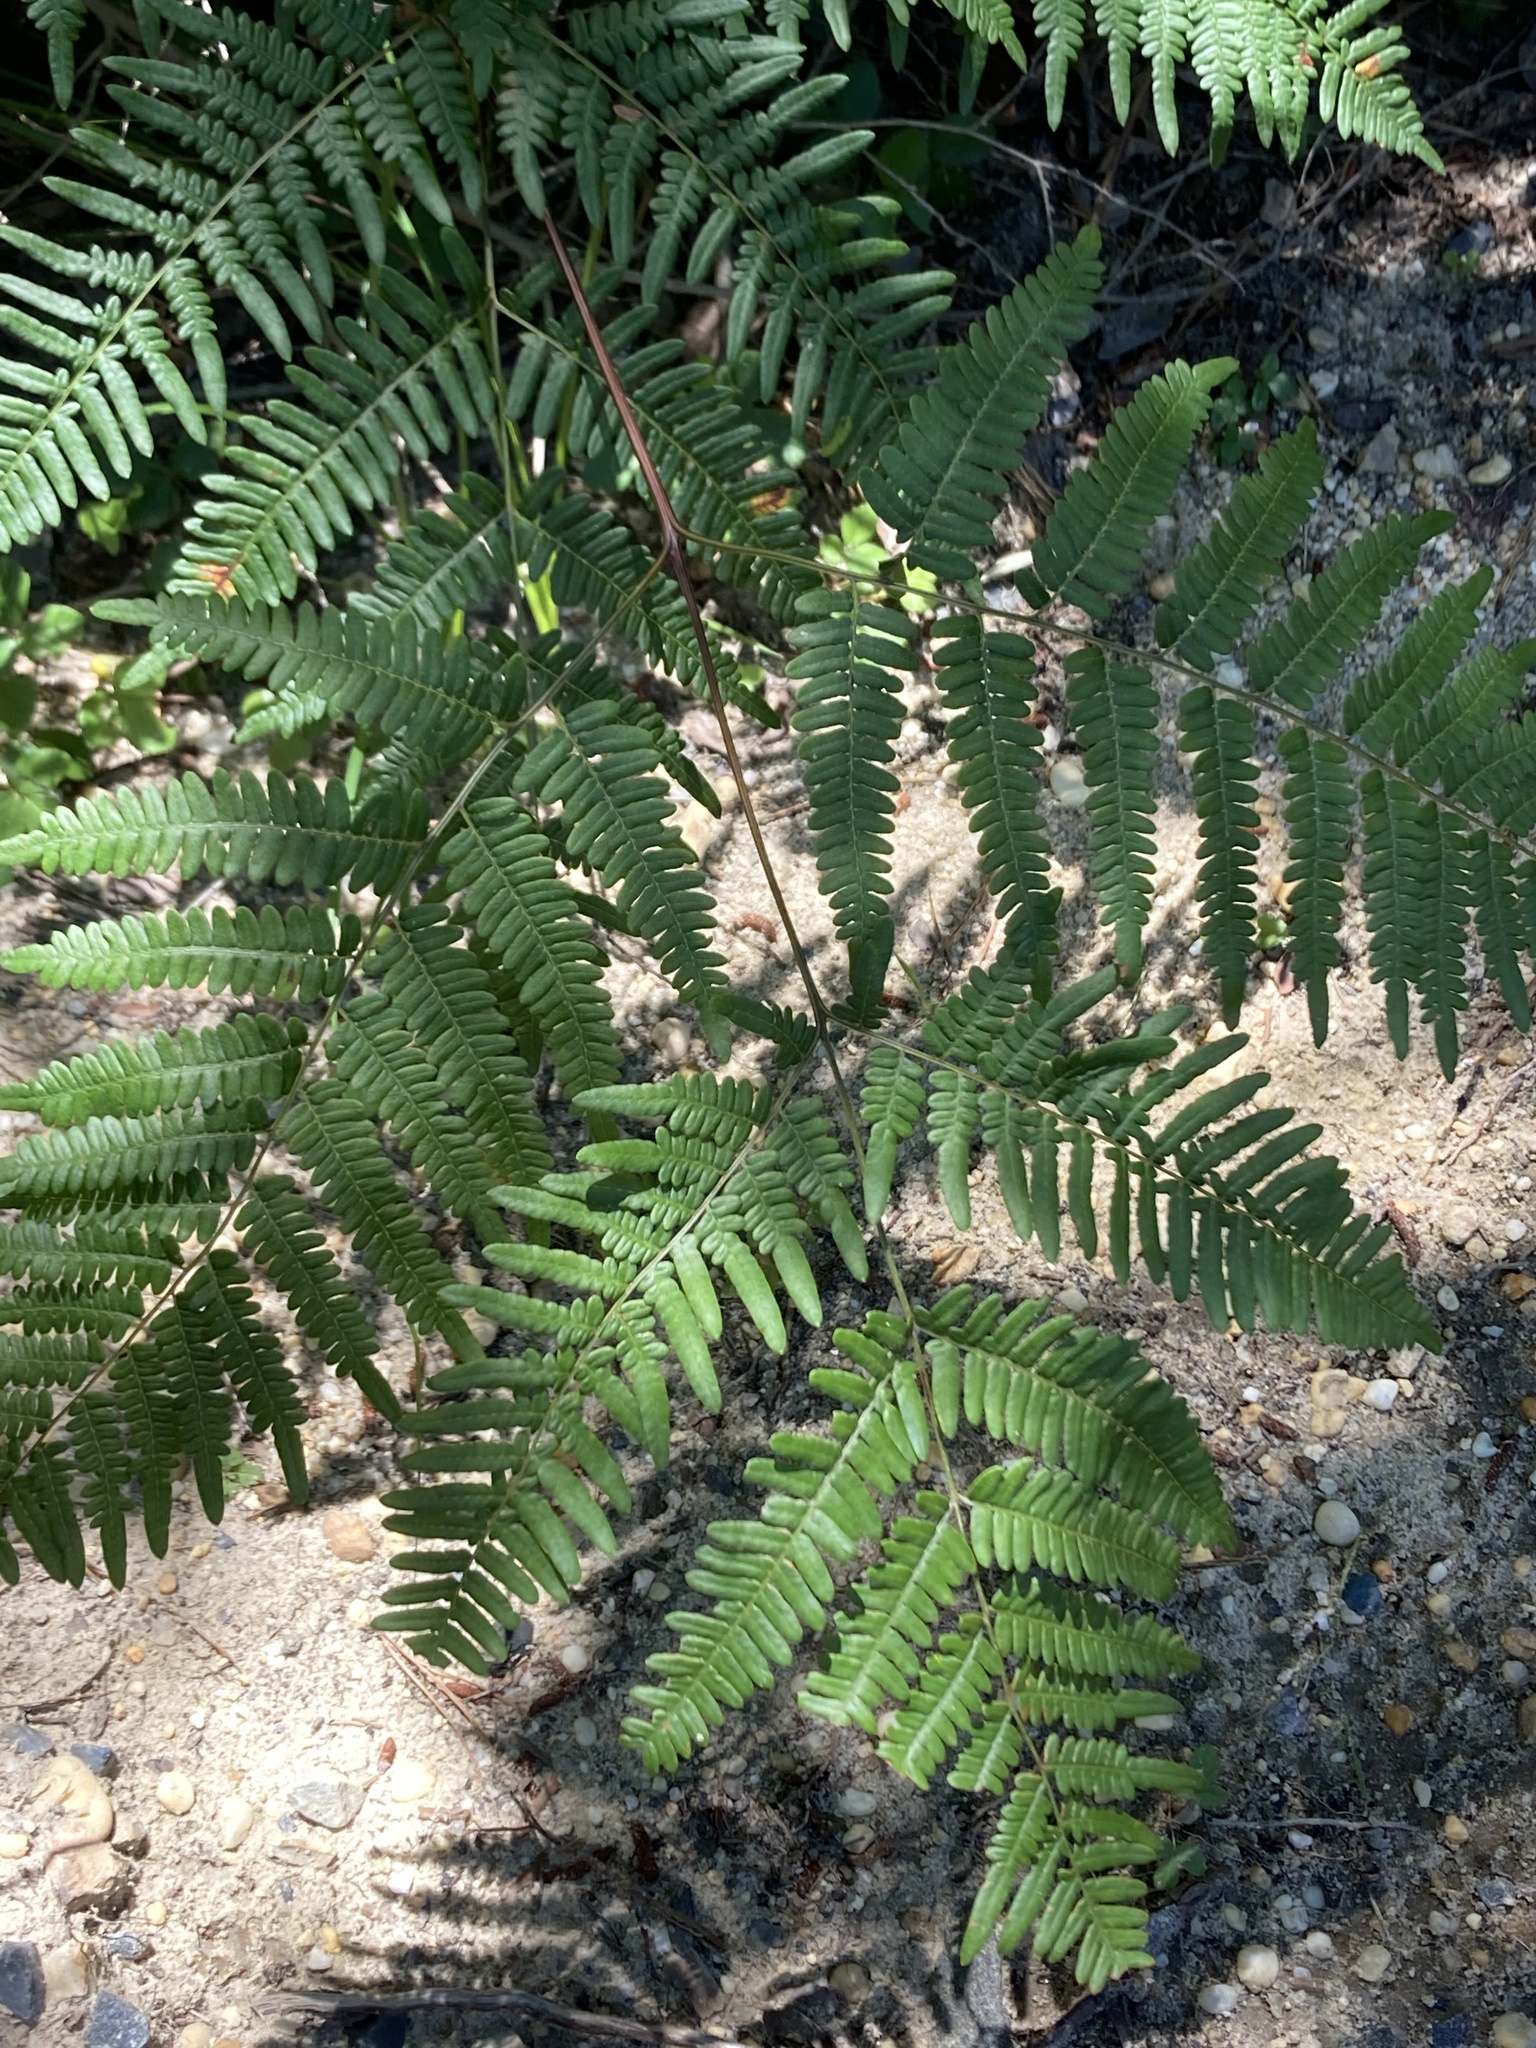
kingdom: Plantae
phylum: Tracheophyta
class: Polypodiopsida
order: Polypodiales
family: Dennstaedtiaceae
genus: Pteridium
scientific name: Pteridium aquilinum
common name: Bracken
